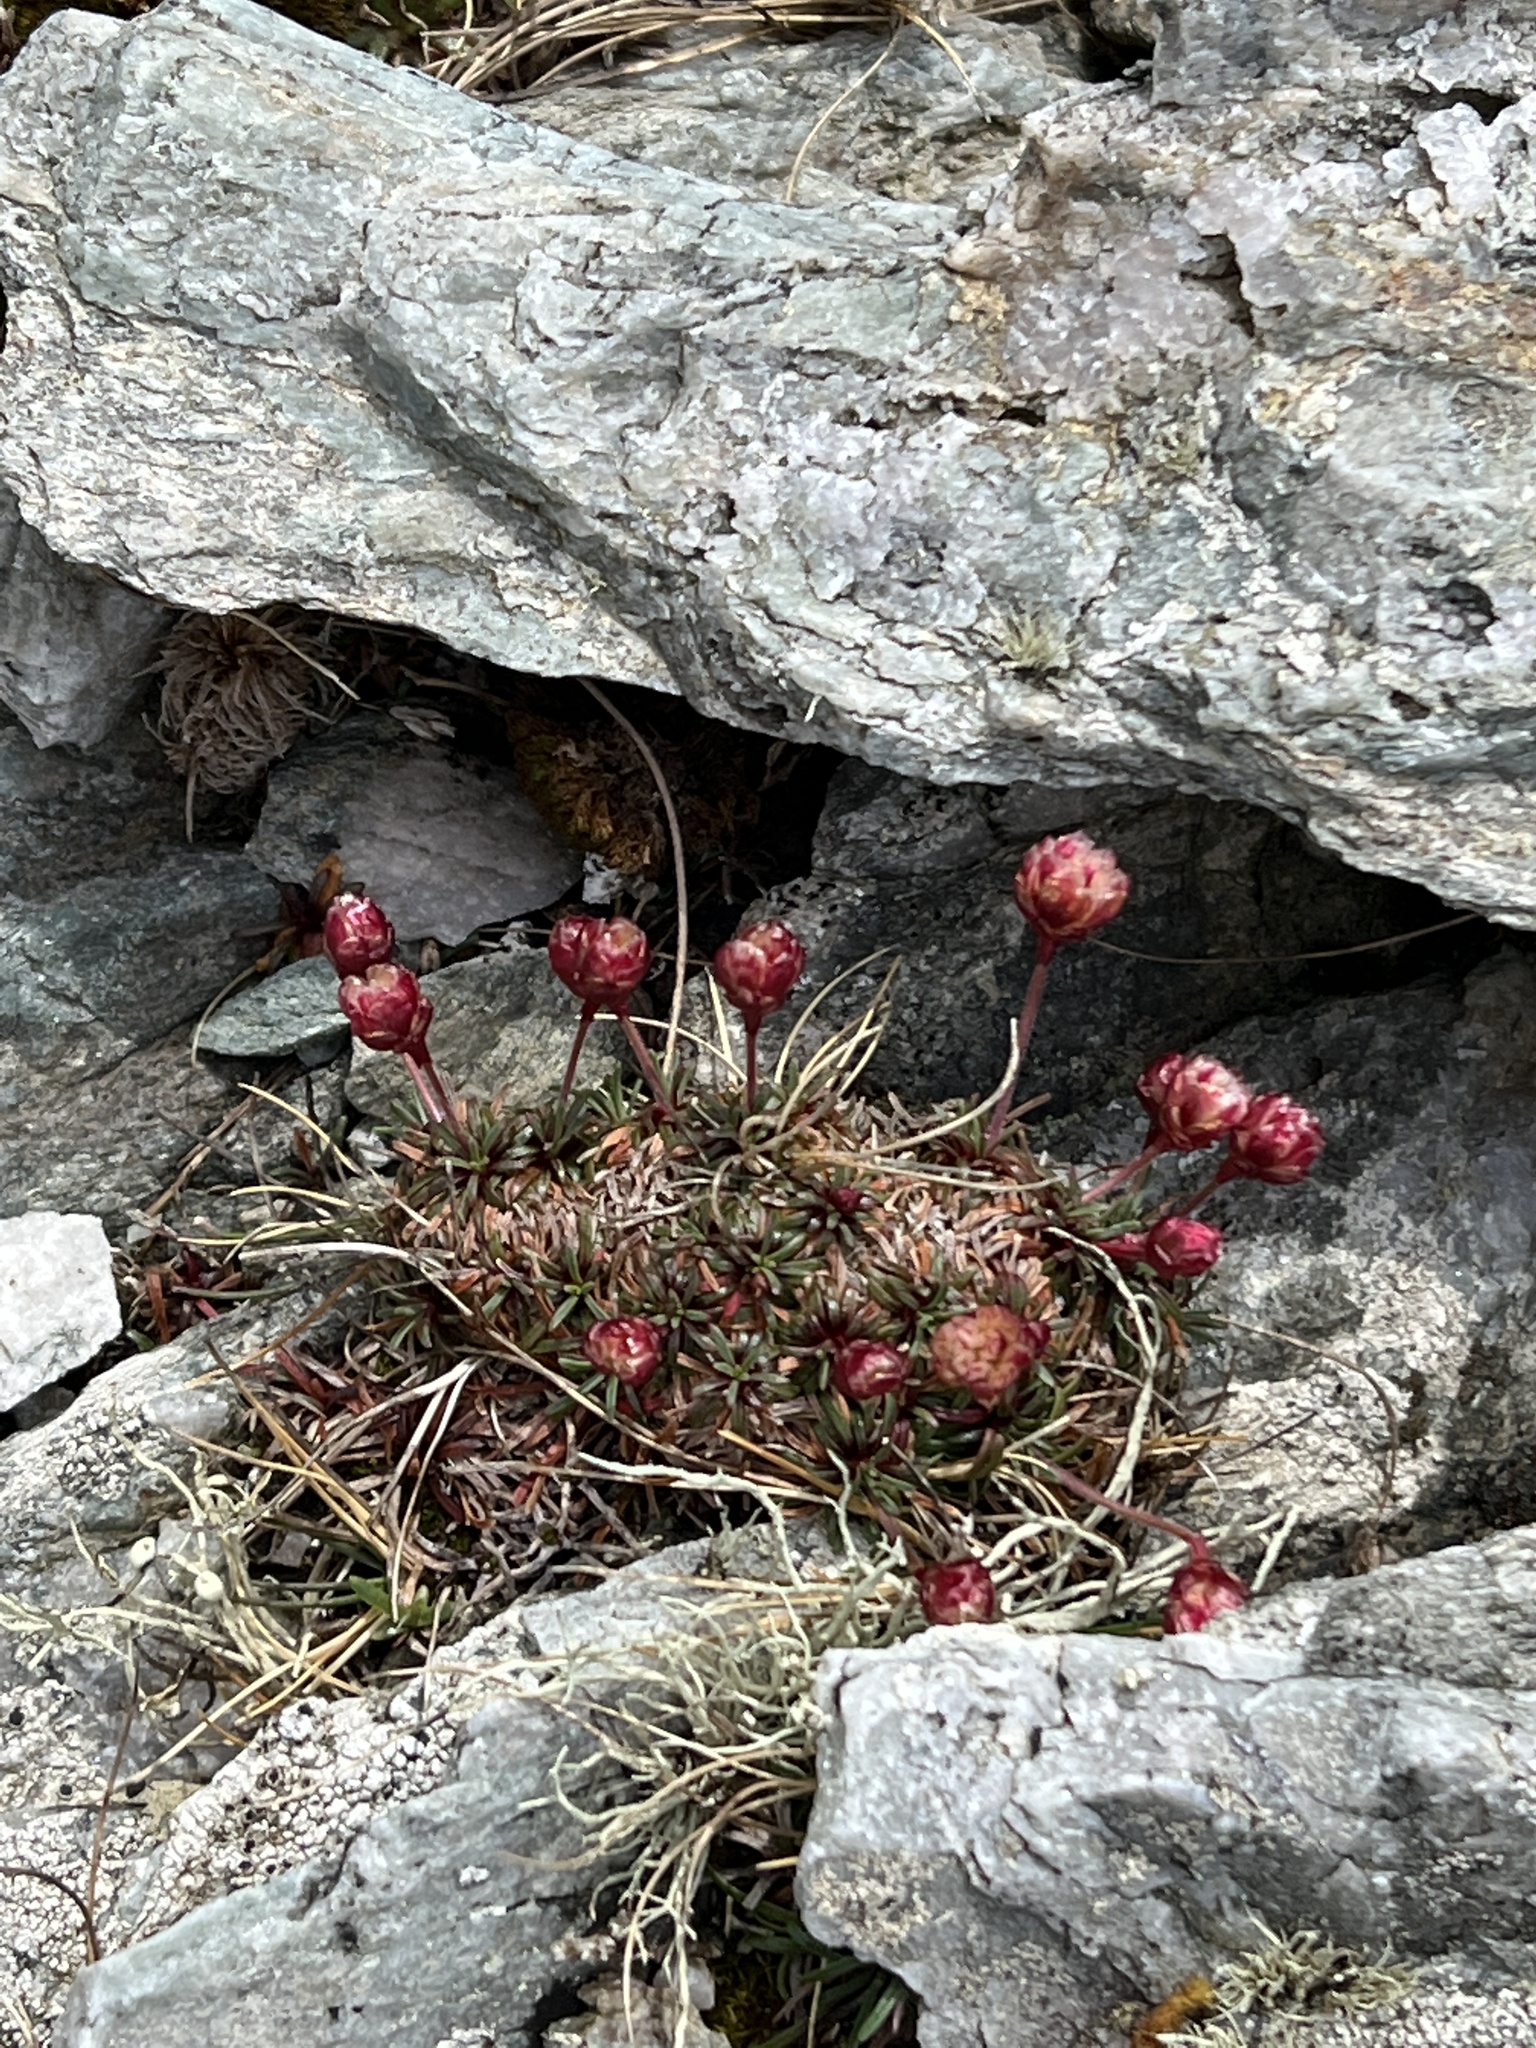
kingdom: Plantae
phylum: Tracheophyta
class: Magnoliopsida
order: Caryophyllales
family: Plumbaginaceae
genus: Armeria
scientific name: Armeria maritima
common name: Thrift
